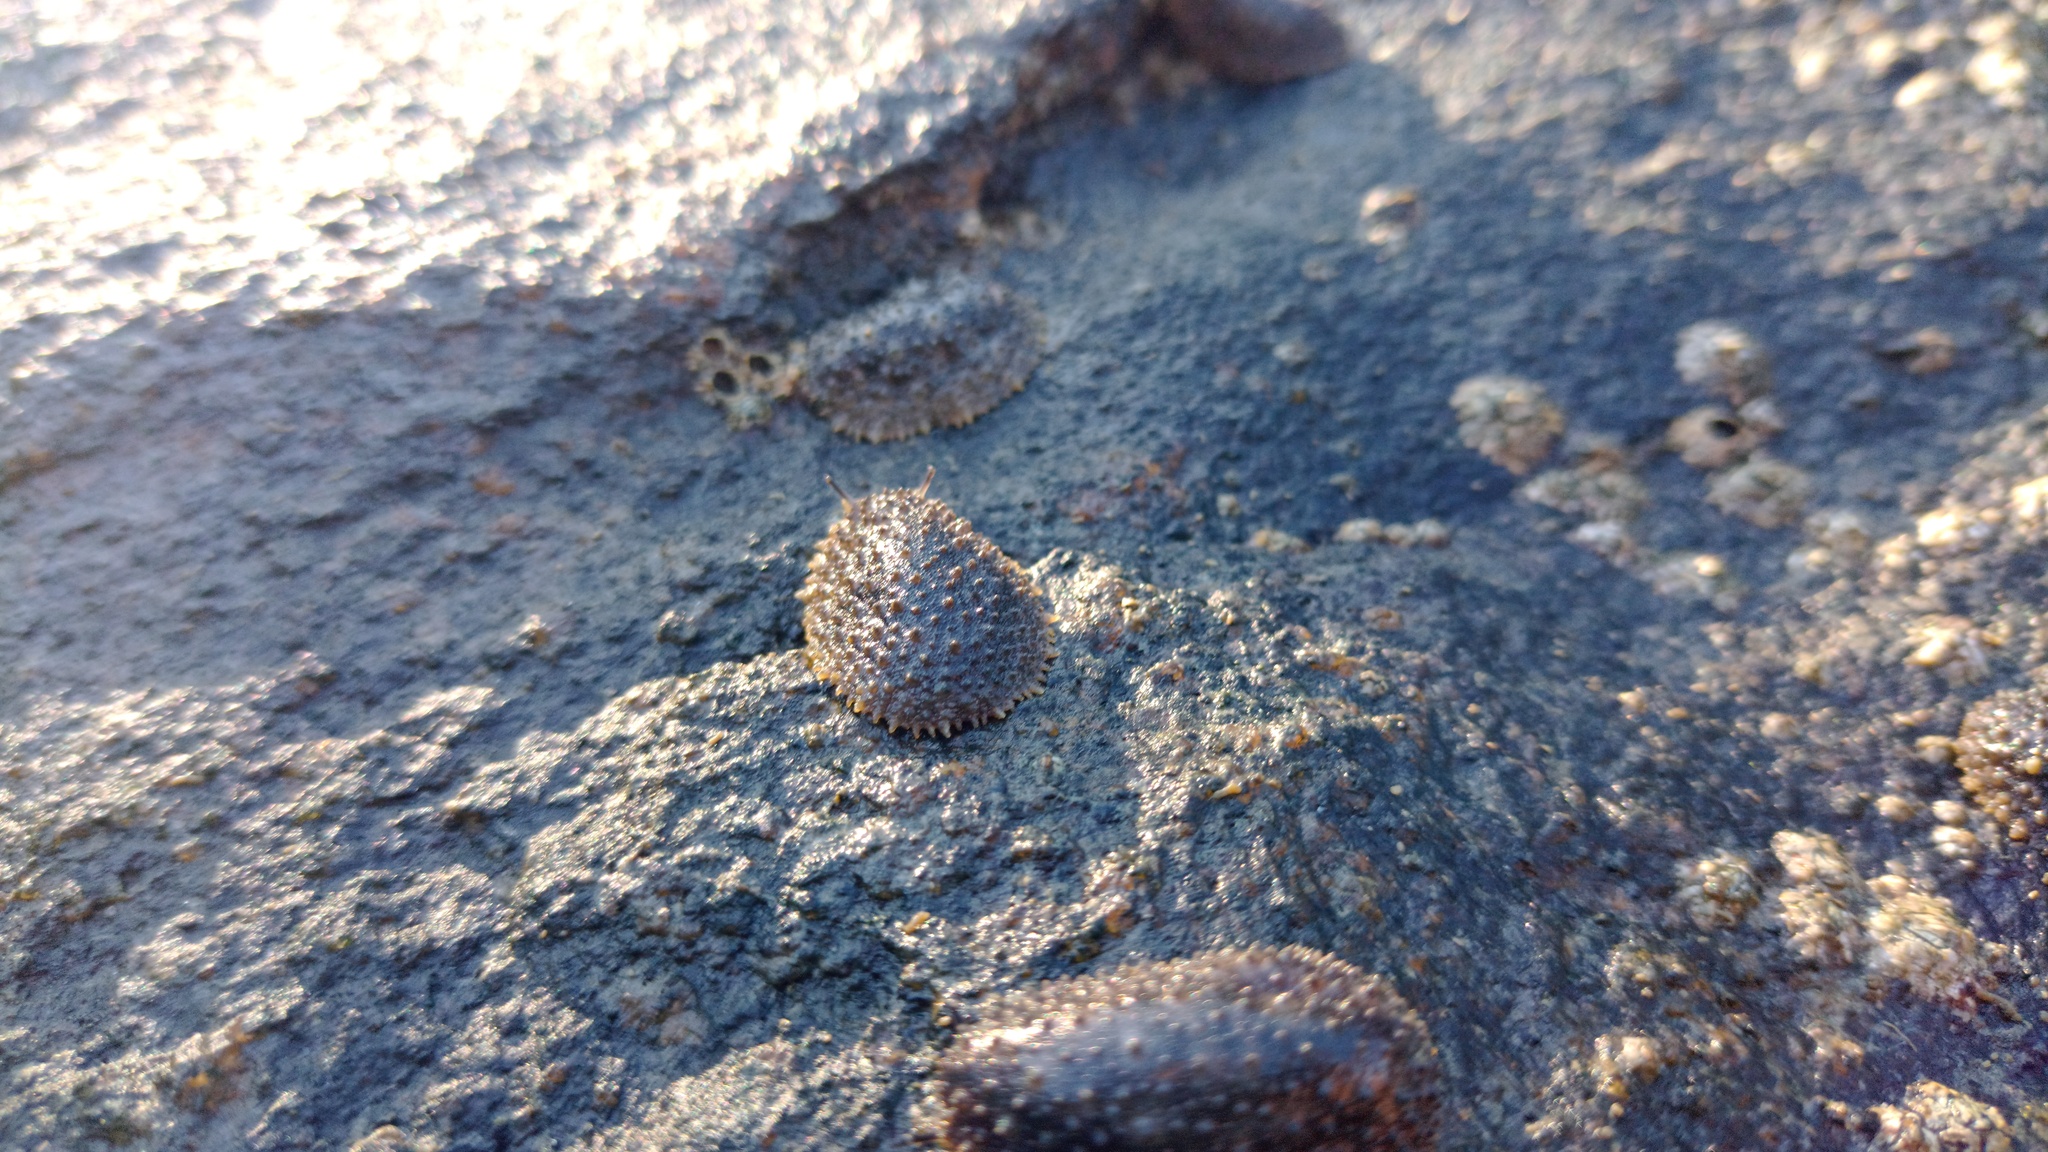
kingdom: Animalia
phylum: Mollusca
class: Gastropoda
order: Systellommatophora
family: Onchidiidae
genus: Onchidella
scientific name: Onchidella incisa
